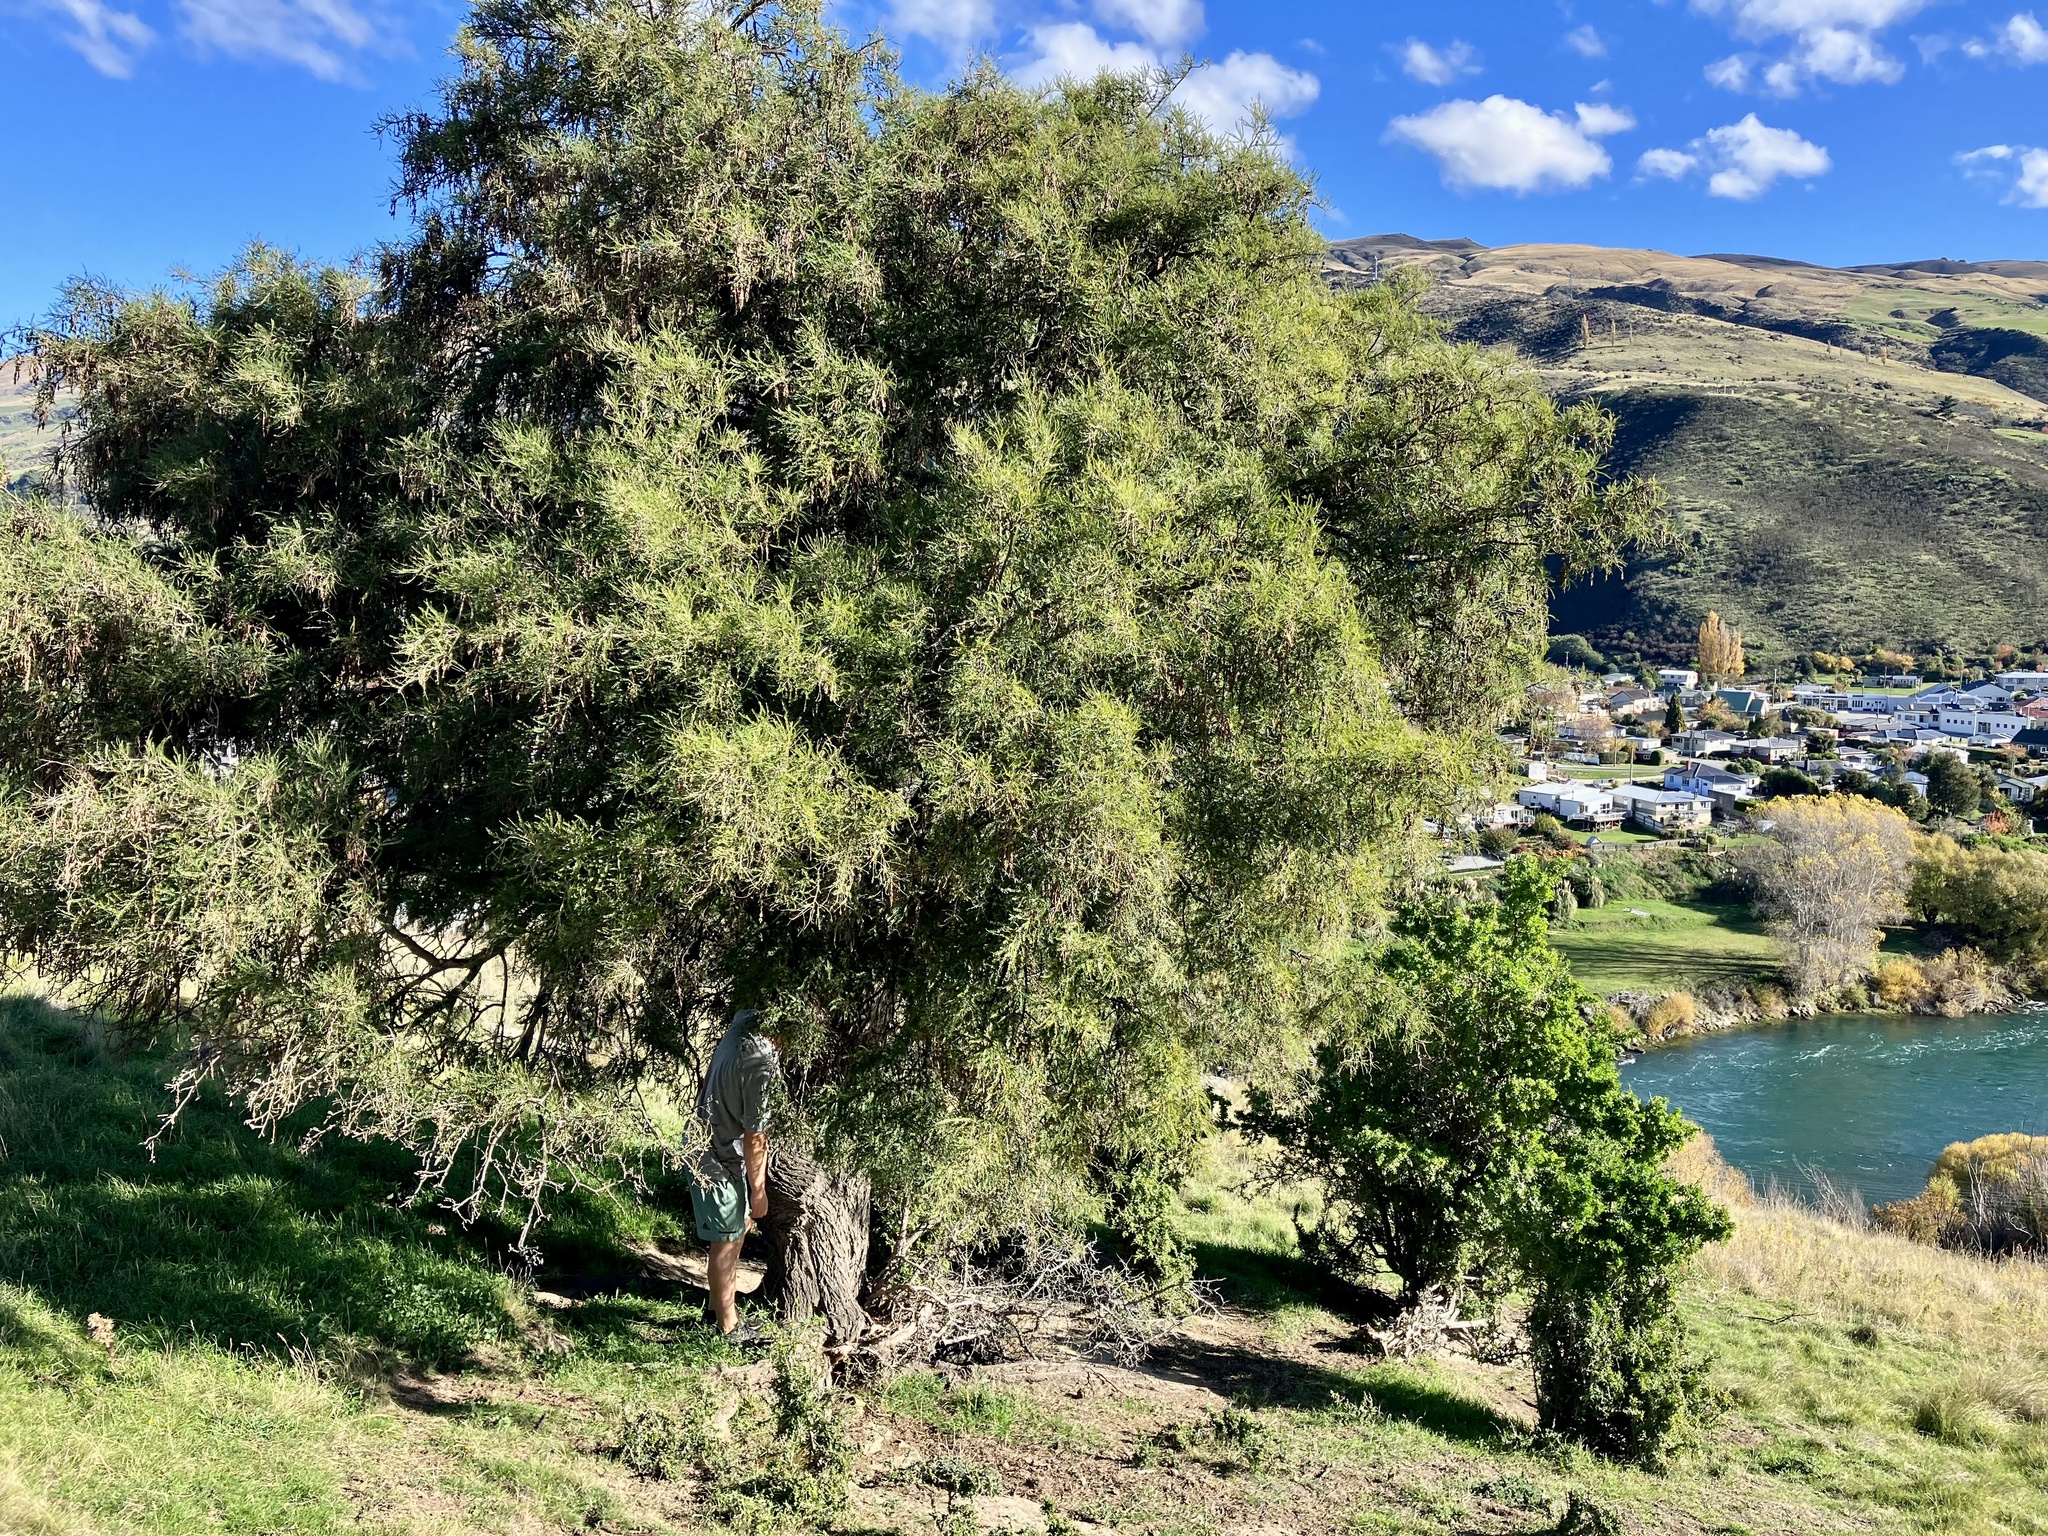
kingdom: Plantae
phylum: Tracheophyta
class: Magnoliopsida
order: Fabales
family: Fabaceae
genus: Sophora
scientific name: Sophora microphylla
